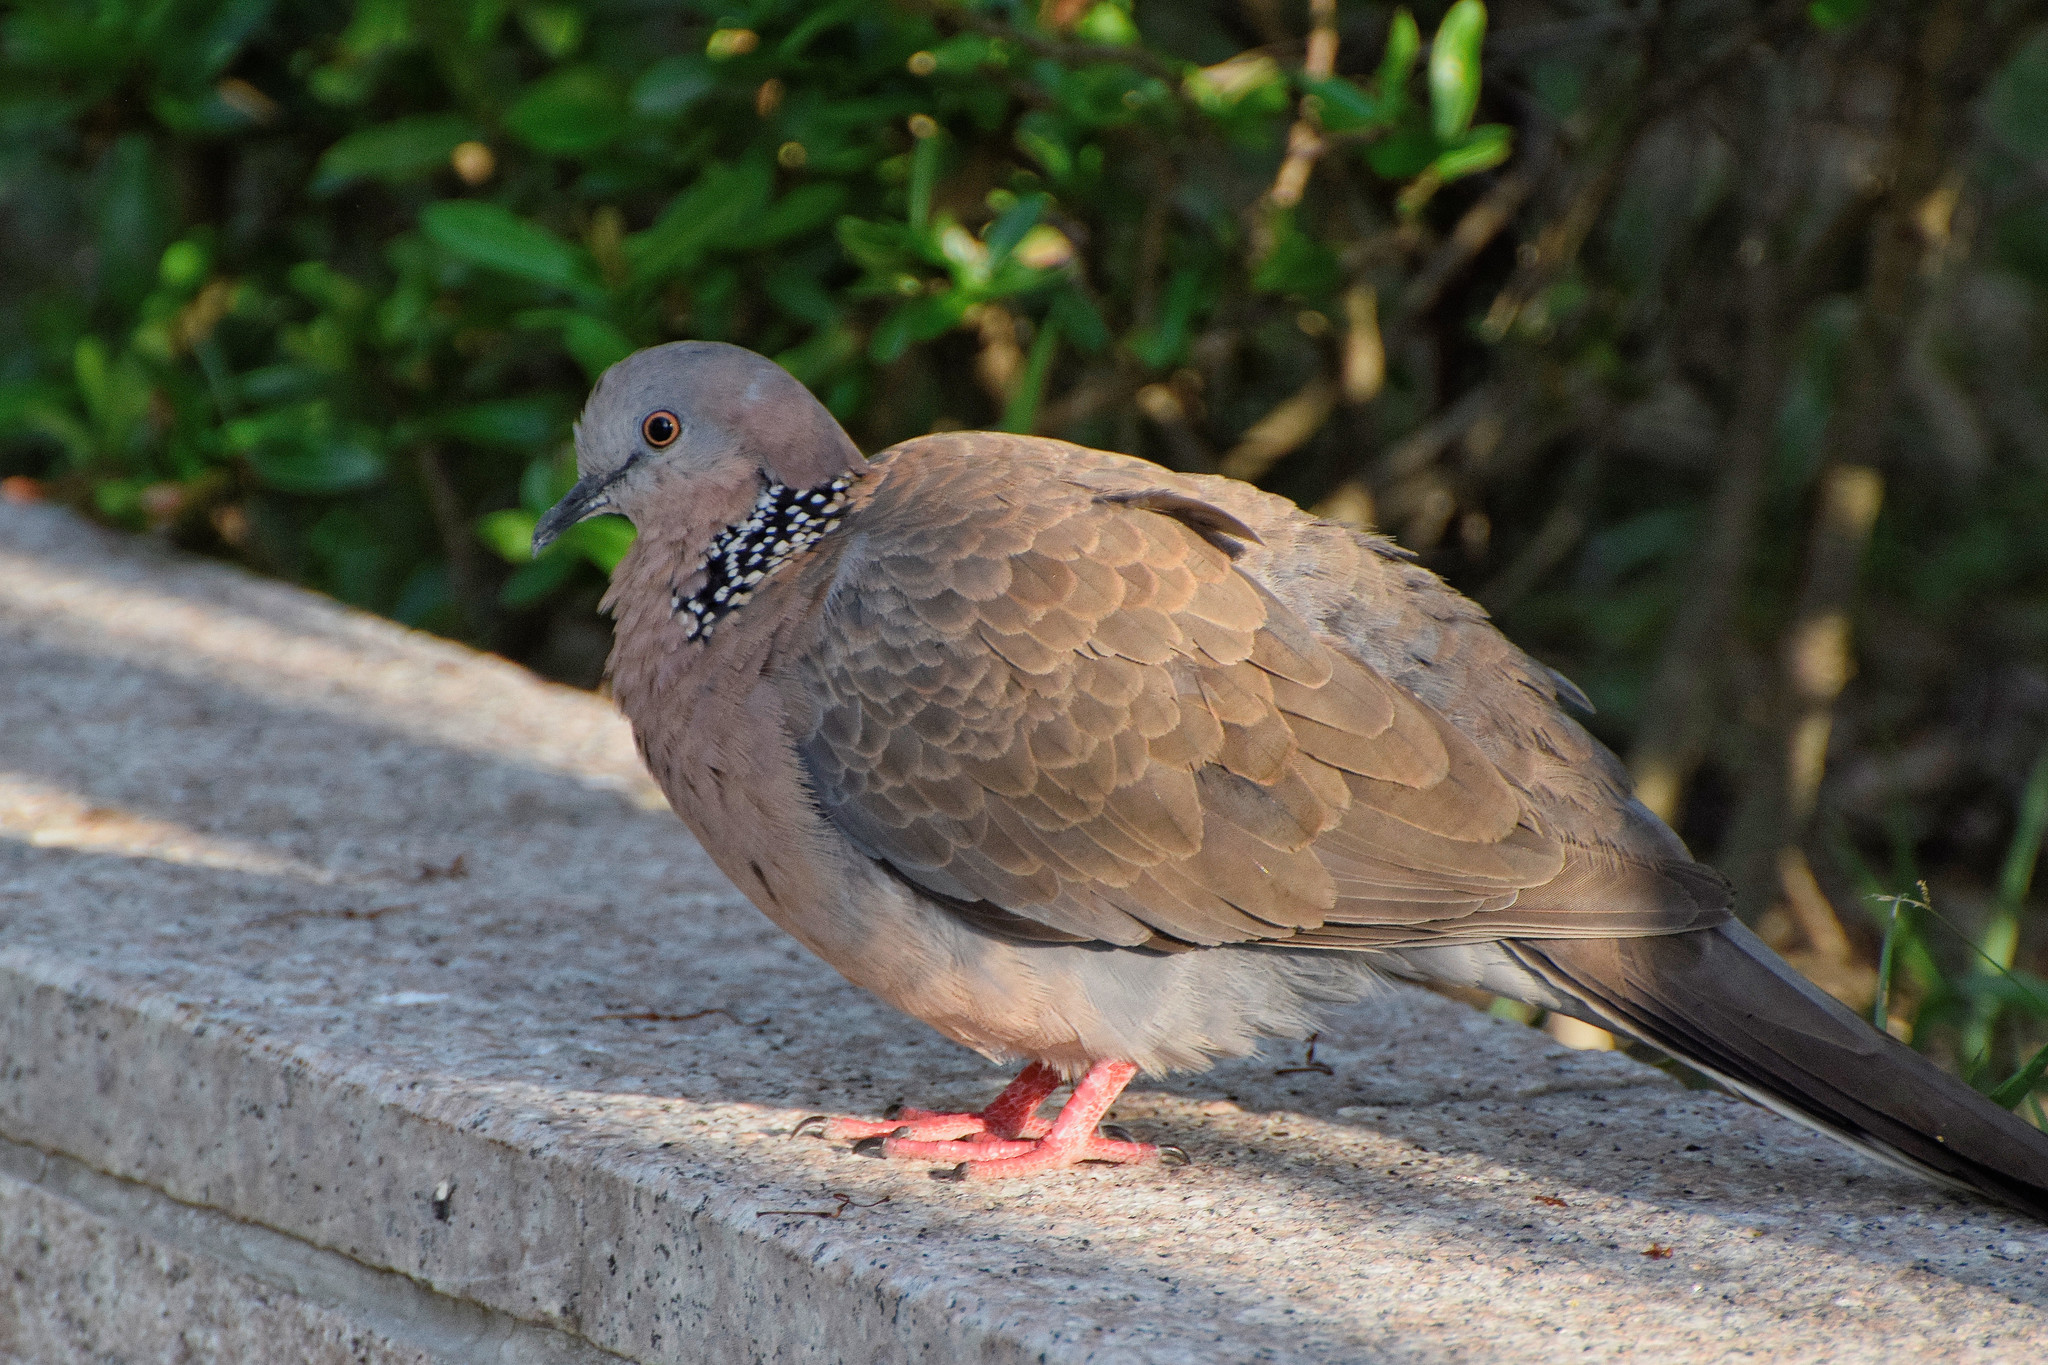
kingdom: Animalia
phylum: Chordata
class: Aves
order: Columbiformes
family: Columbidae
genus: Spilopelia
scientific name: Spilopelia chinensis
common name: Spotted dove
